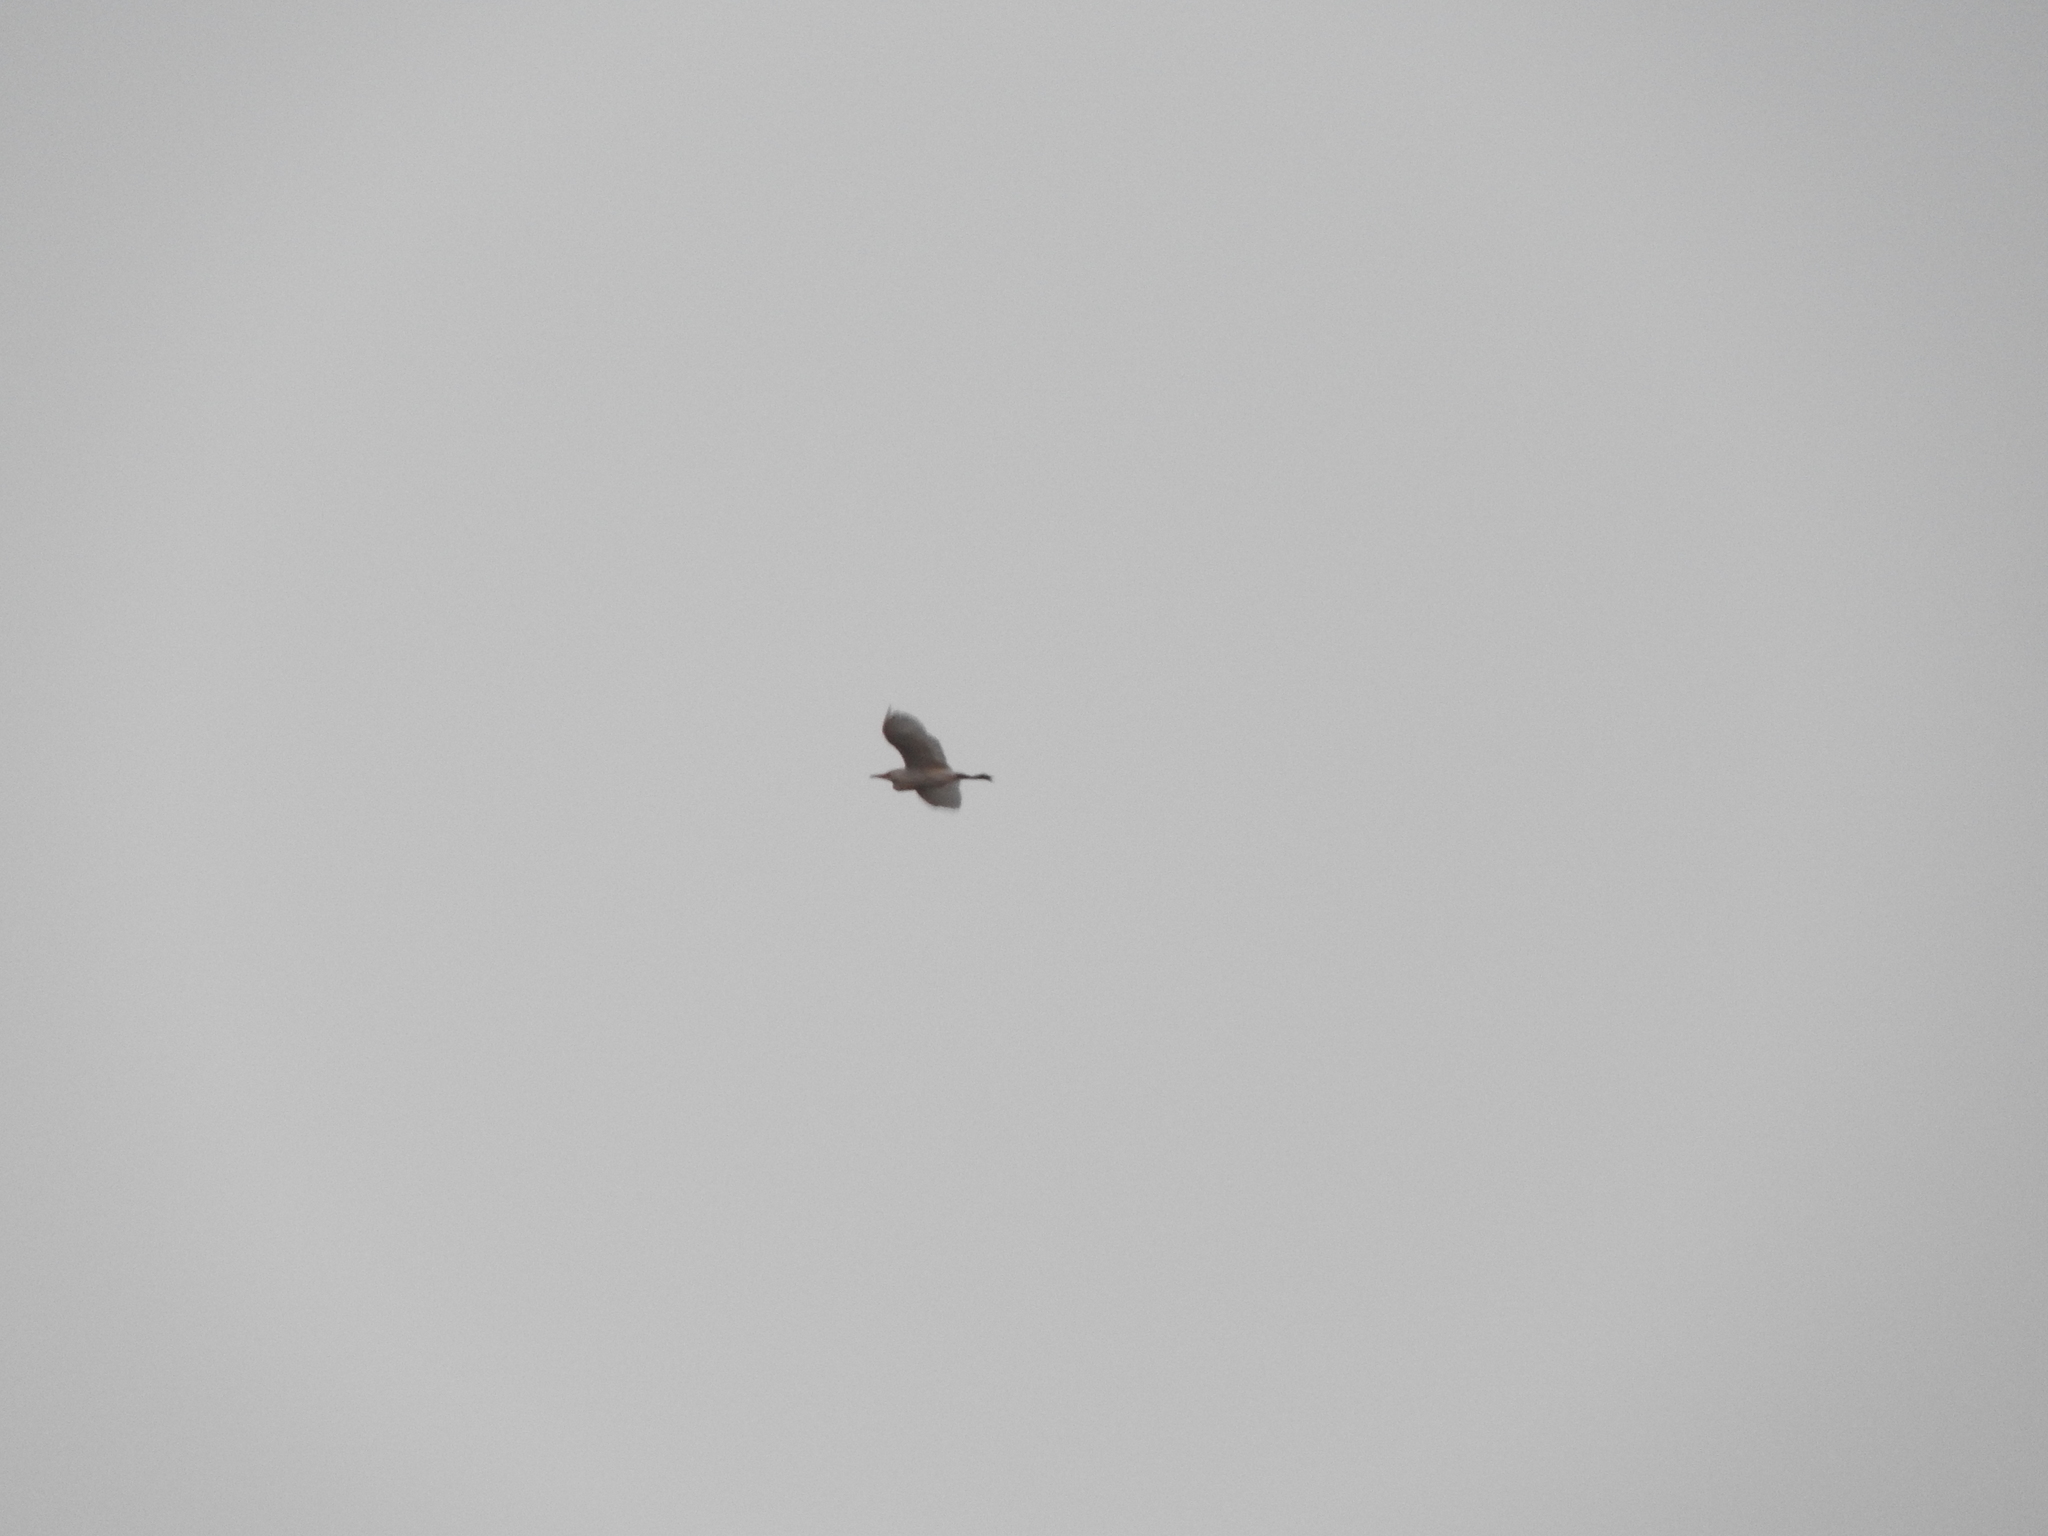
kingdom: Animalia
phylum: Chordata
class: Aves
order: Pelecaniformes
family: Ardeidae
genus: Bubulcus
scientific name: Bubulcus ibis
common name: Cattle egret
